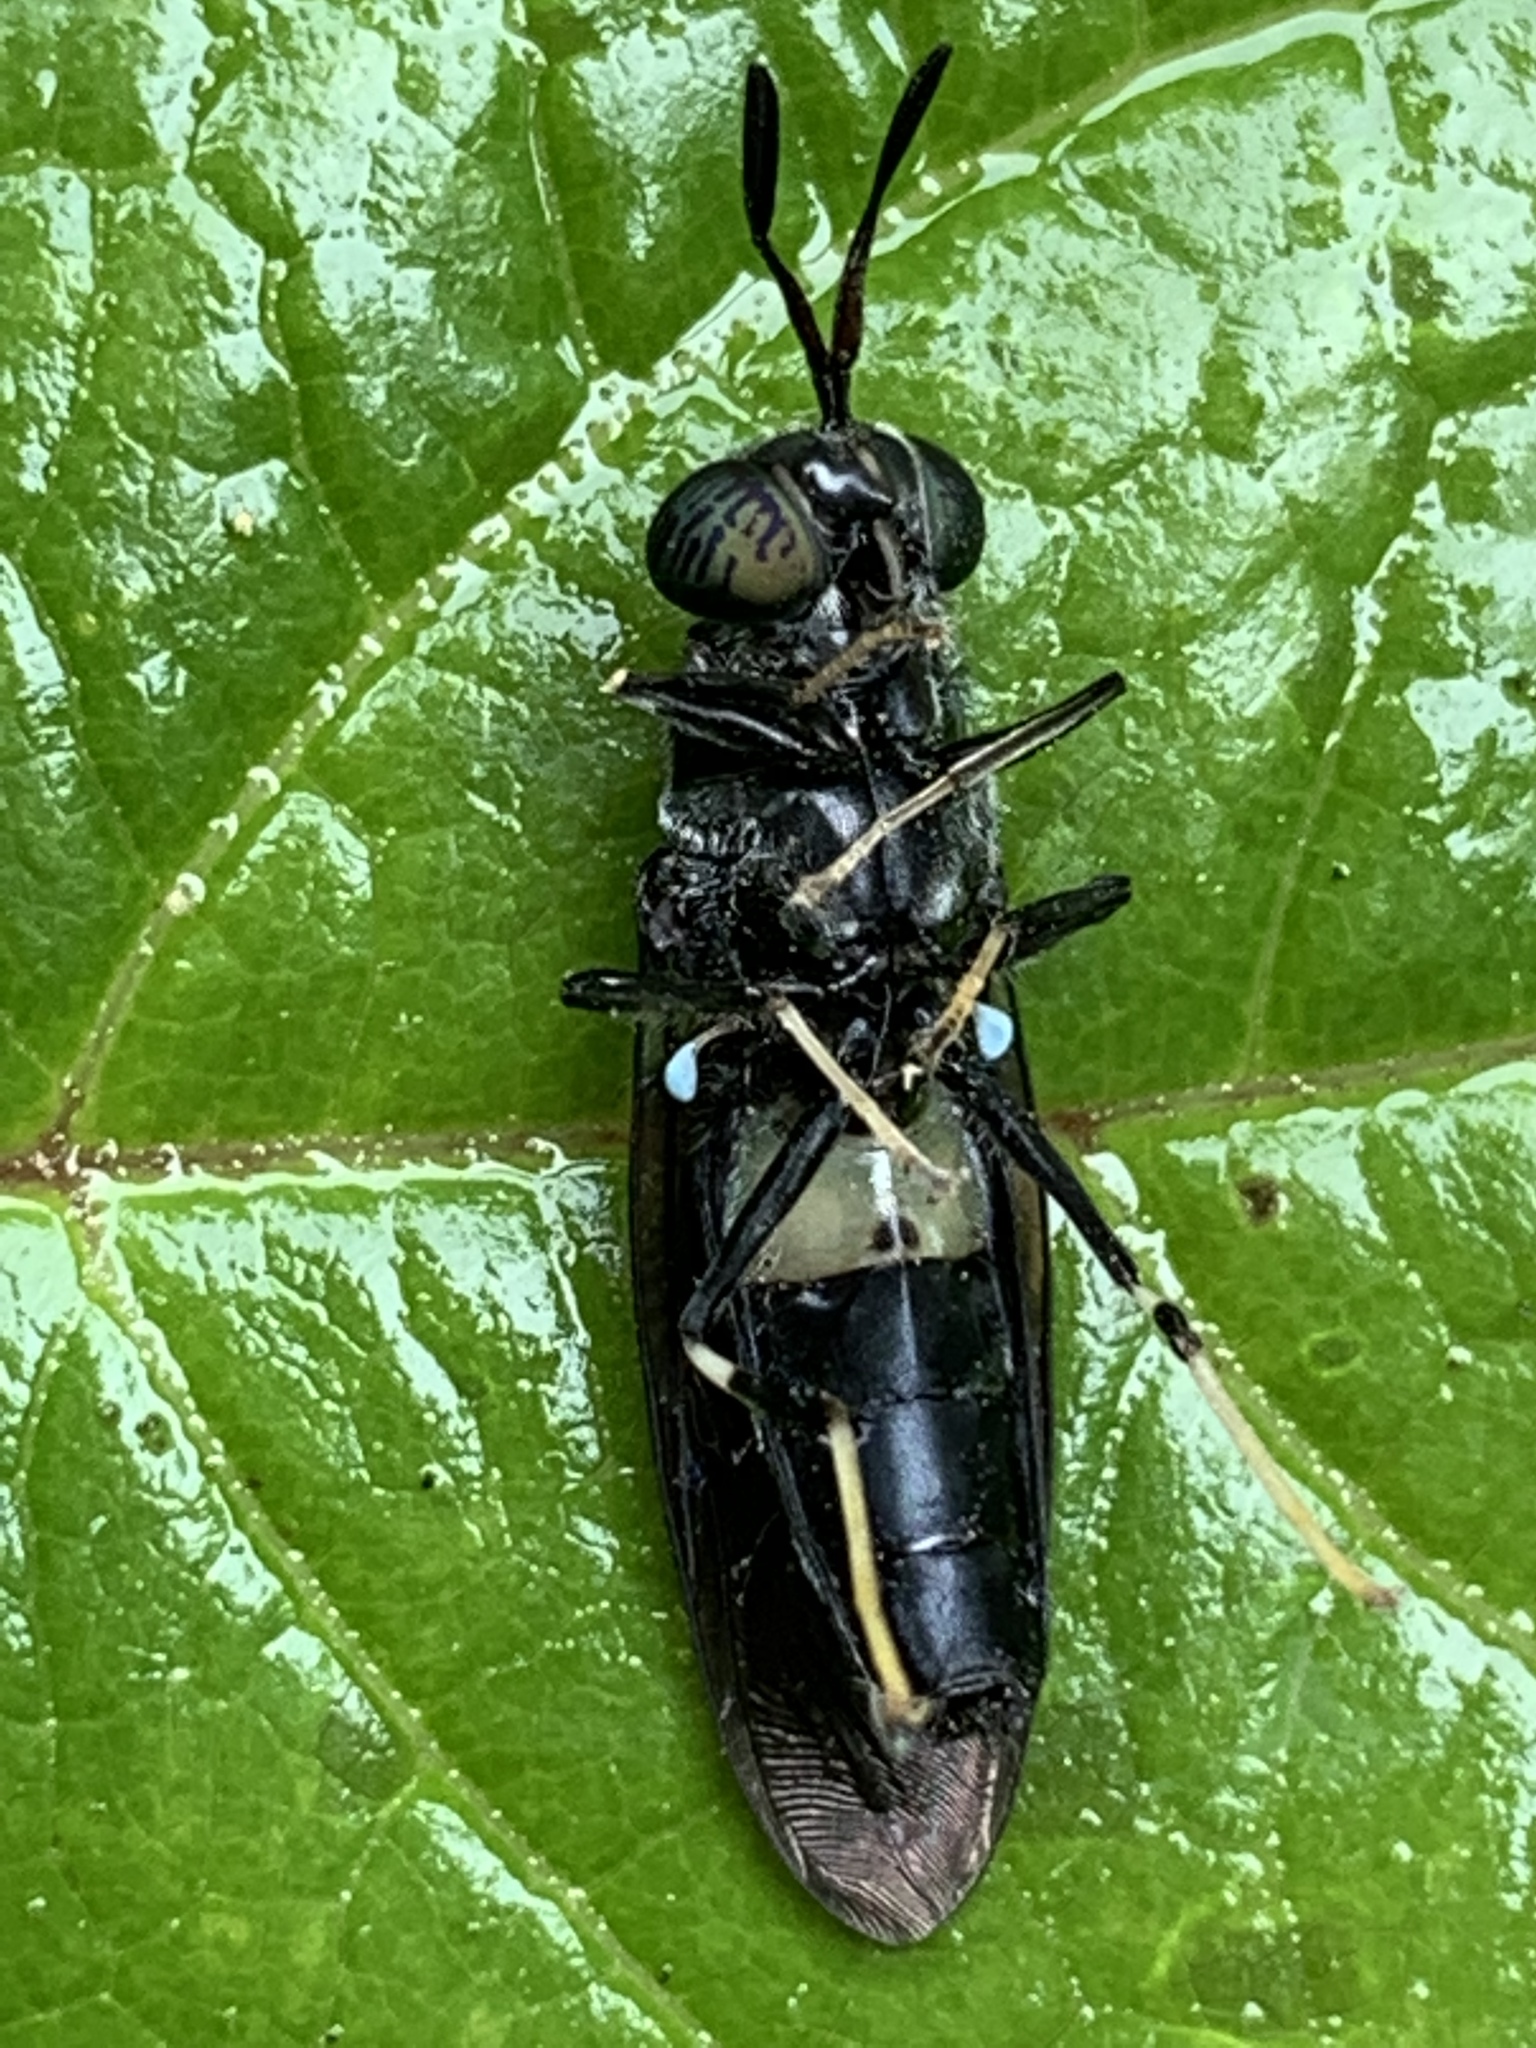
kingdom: Animalia
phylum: Arthropoda
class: Insecta
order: Diptera
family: Stratiomyidae
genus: Hermetia
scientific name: Hermetia illucens
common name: Black soldier fly
